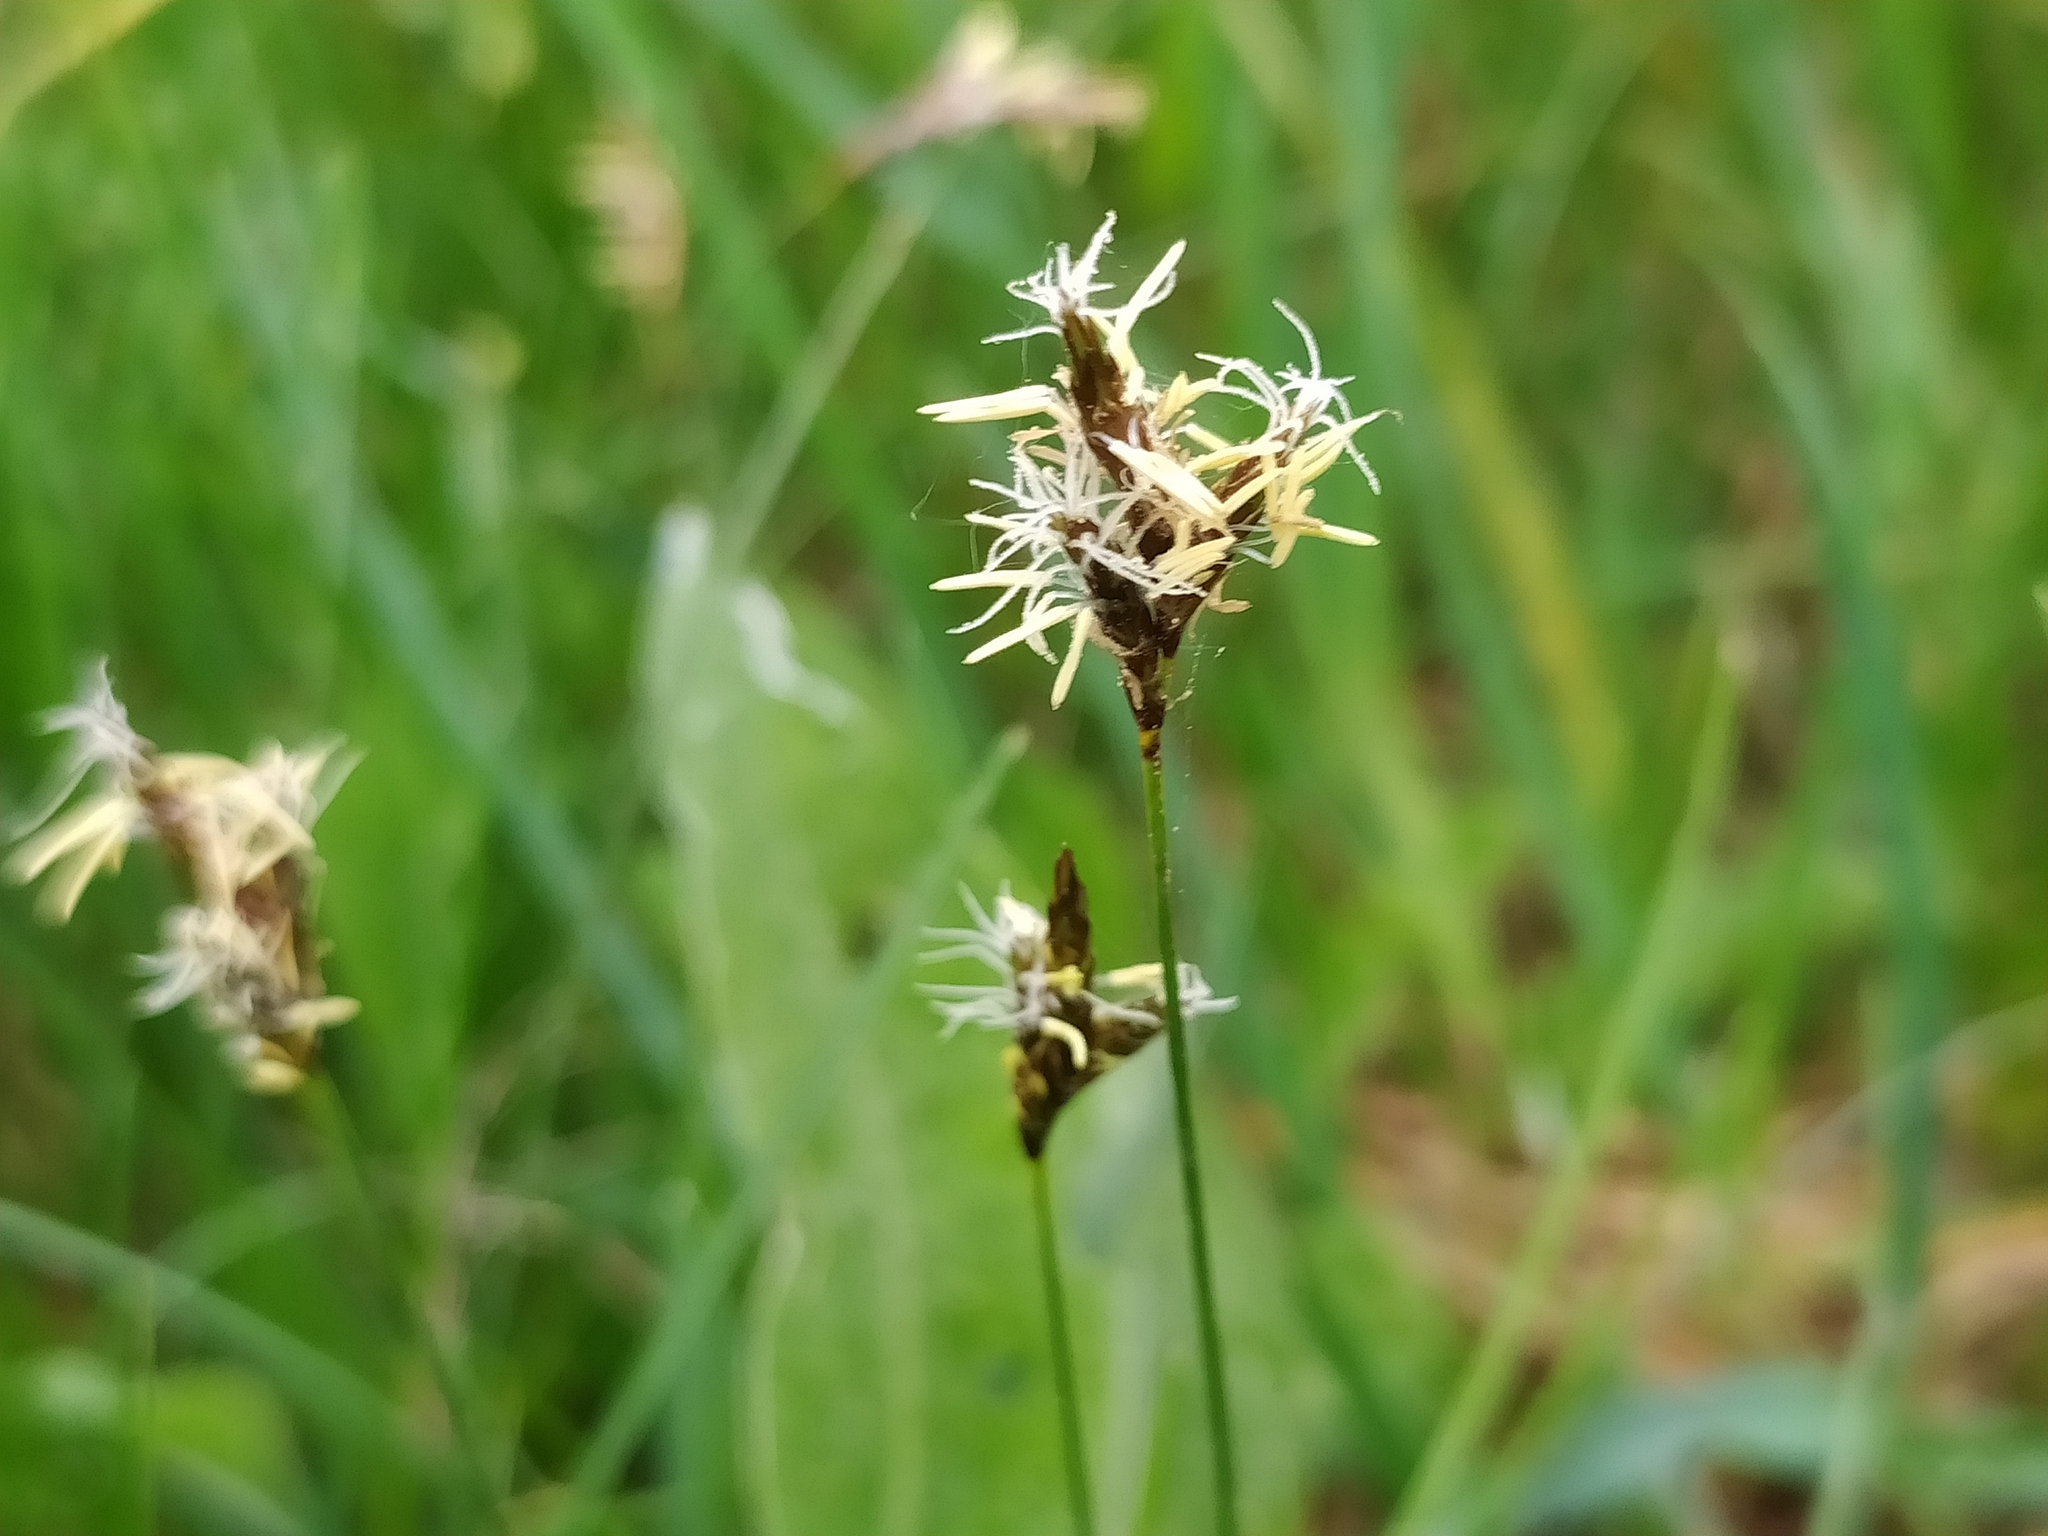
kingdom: Plantae
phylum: Tracheophyta
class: Liliopsida
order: Poales
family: Cyperaceae
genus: Carex
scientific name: Carex praecox
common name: Early sedge
